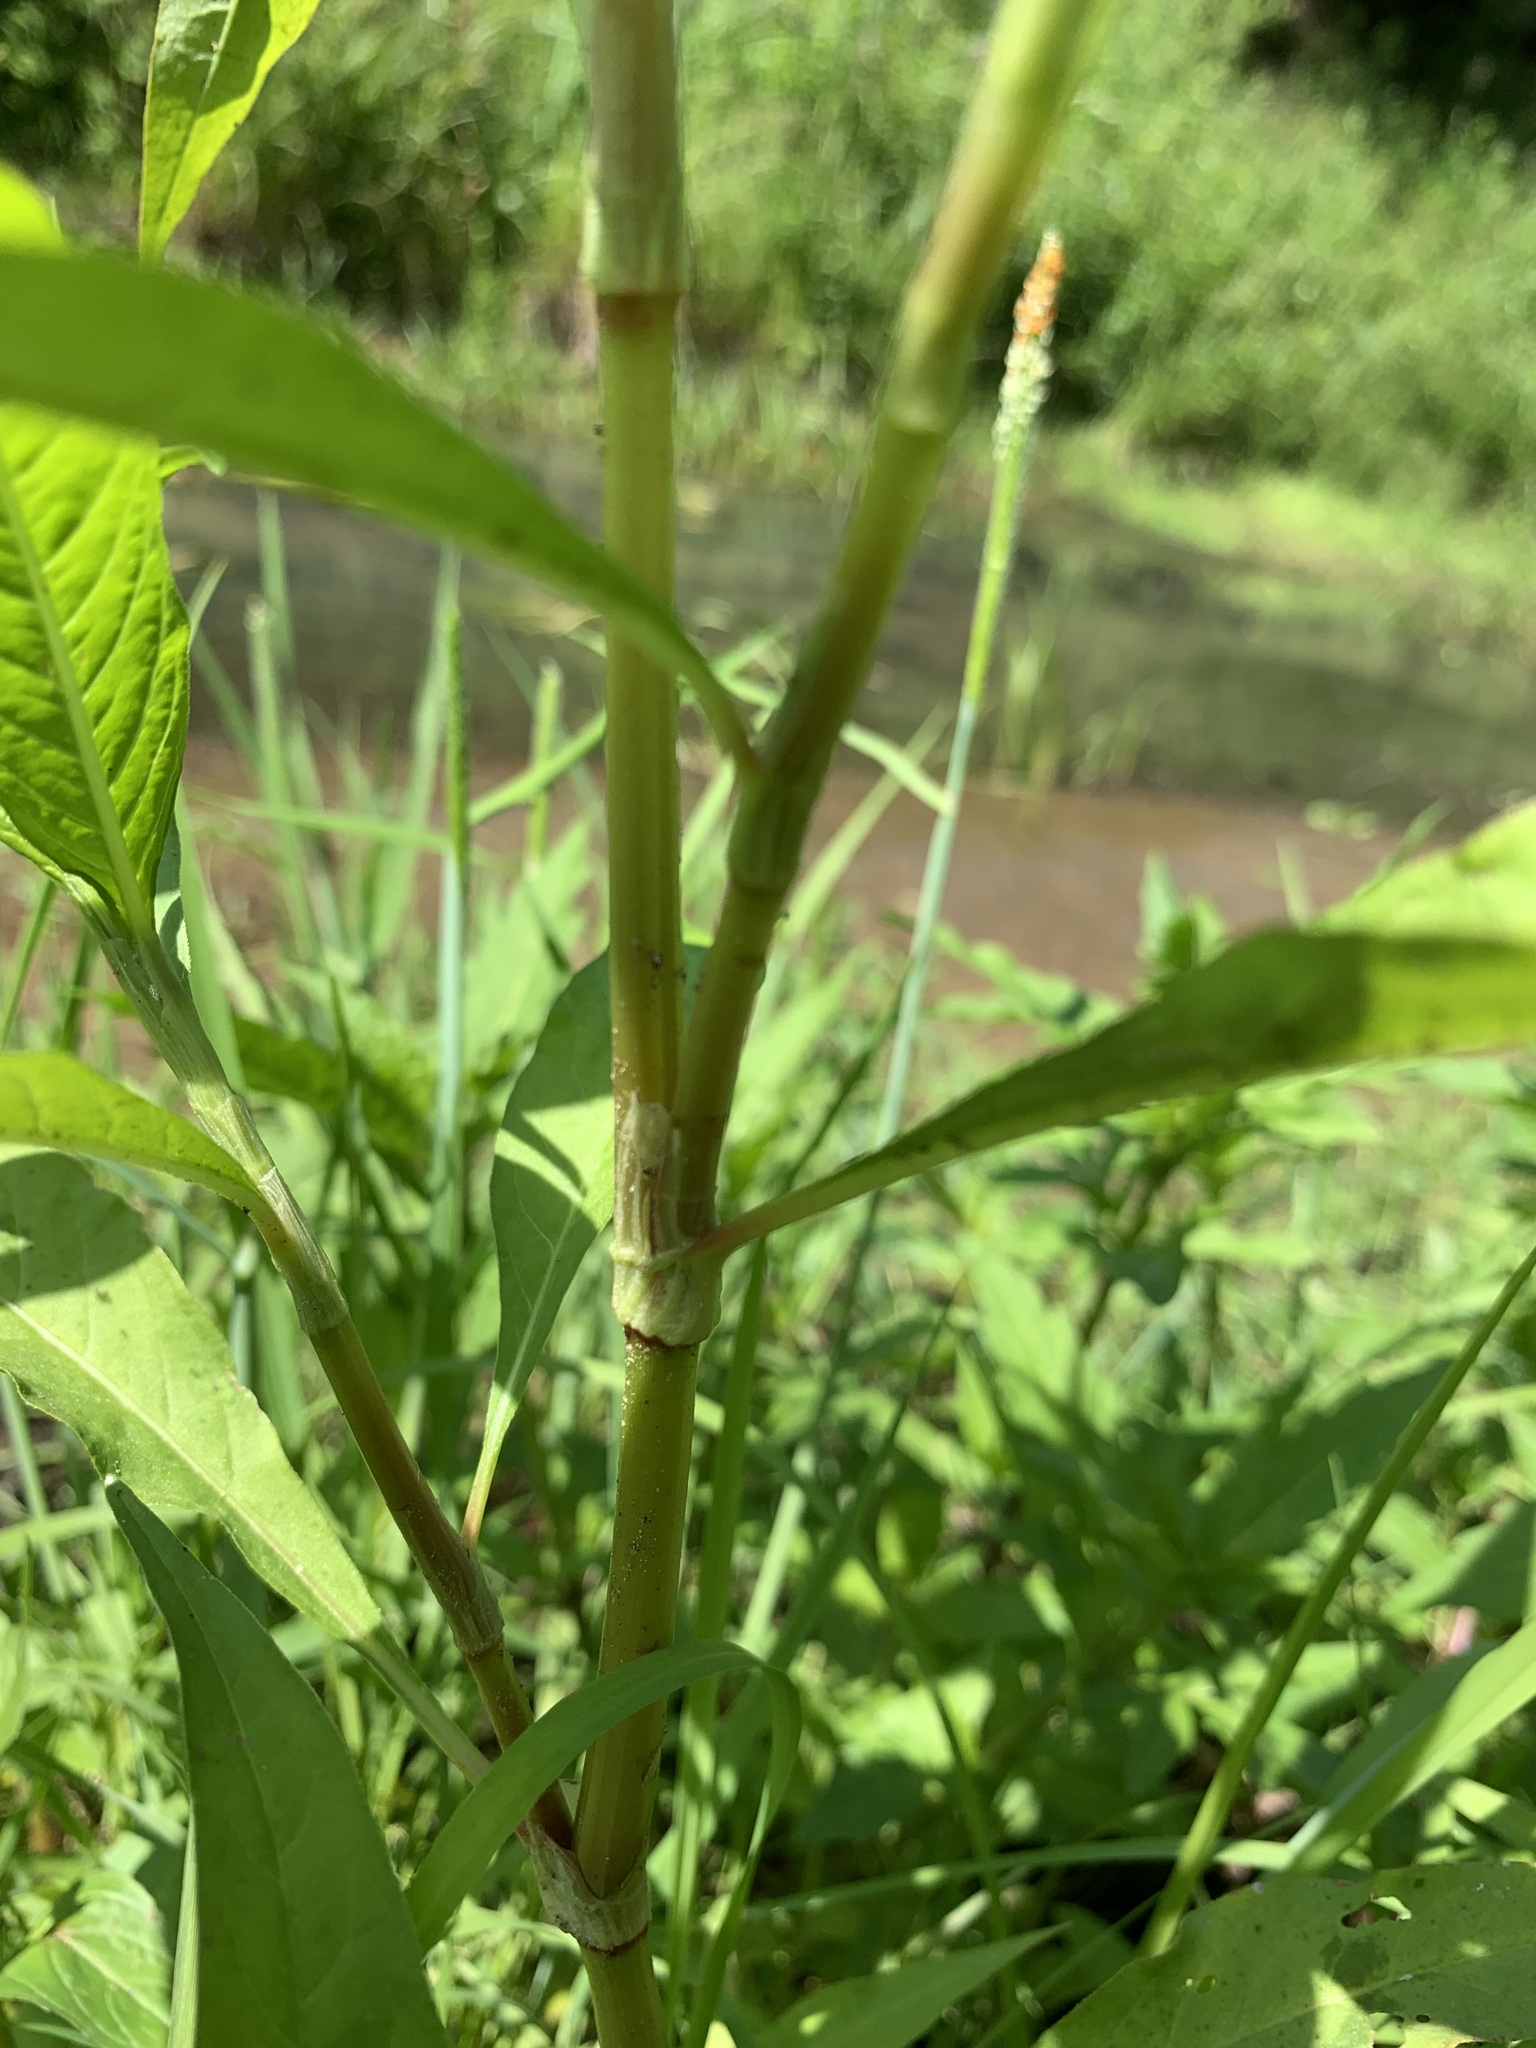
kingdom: Plantae
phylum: Tracheophyta
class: Magnoliopsida
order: Caryophyllales
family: Polygonaceae
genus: Persicaria
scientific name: Persicaria lapathifolia
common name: Curlytop knotweed
